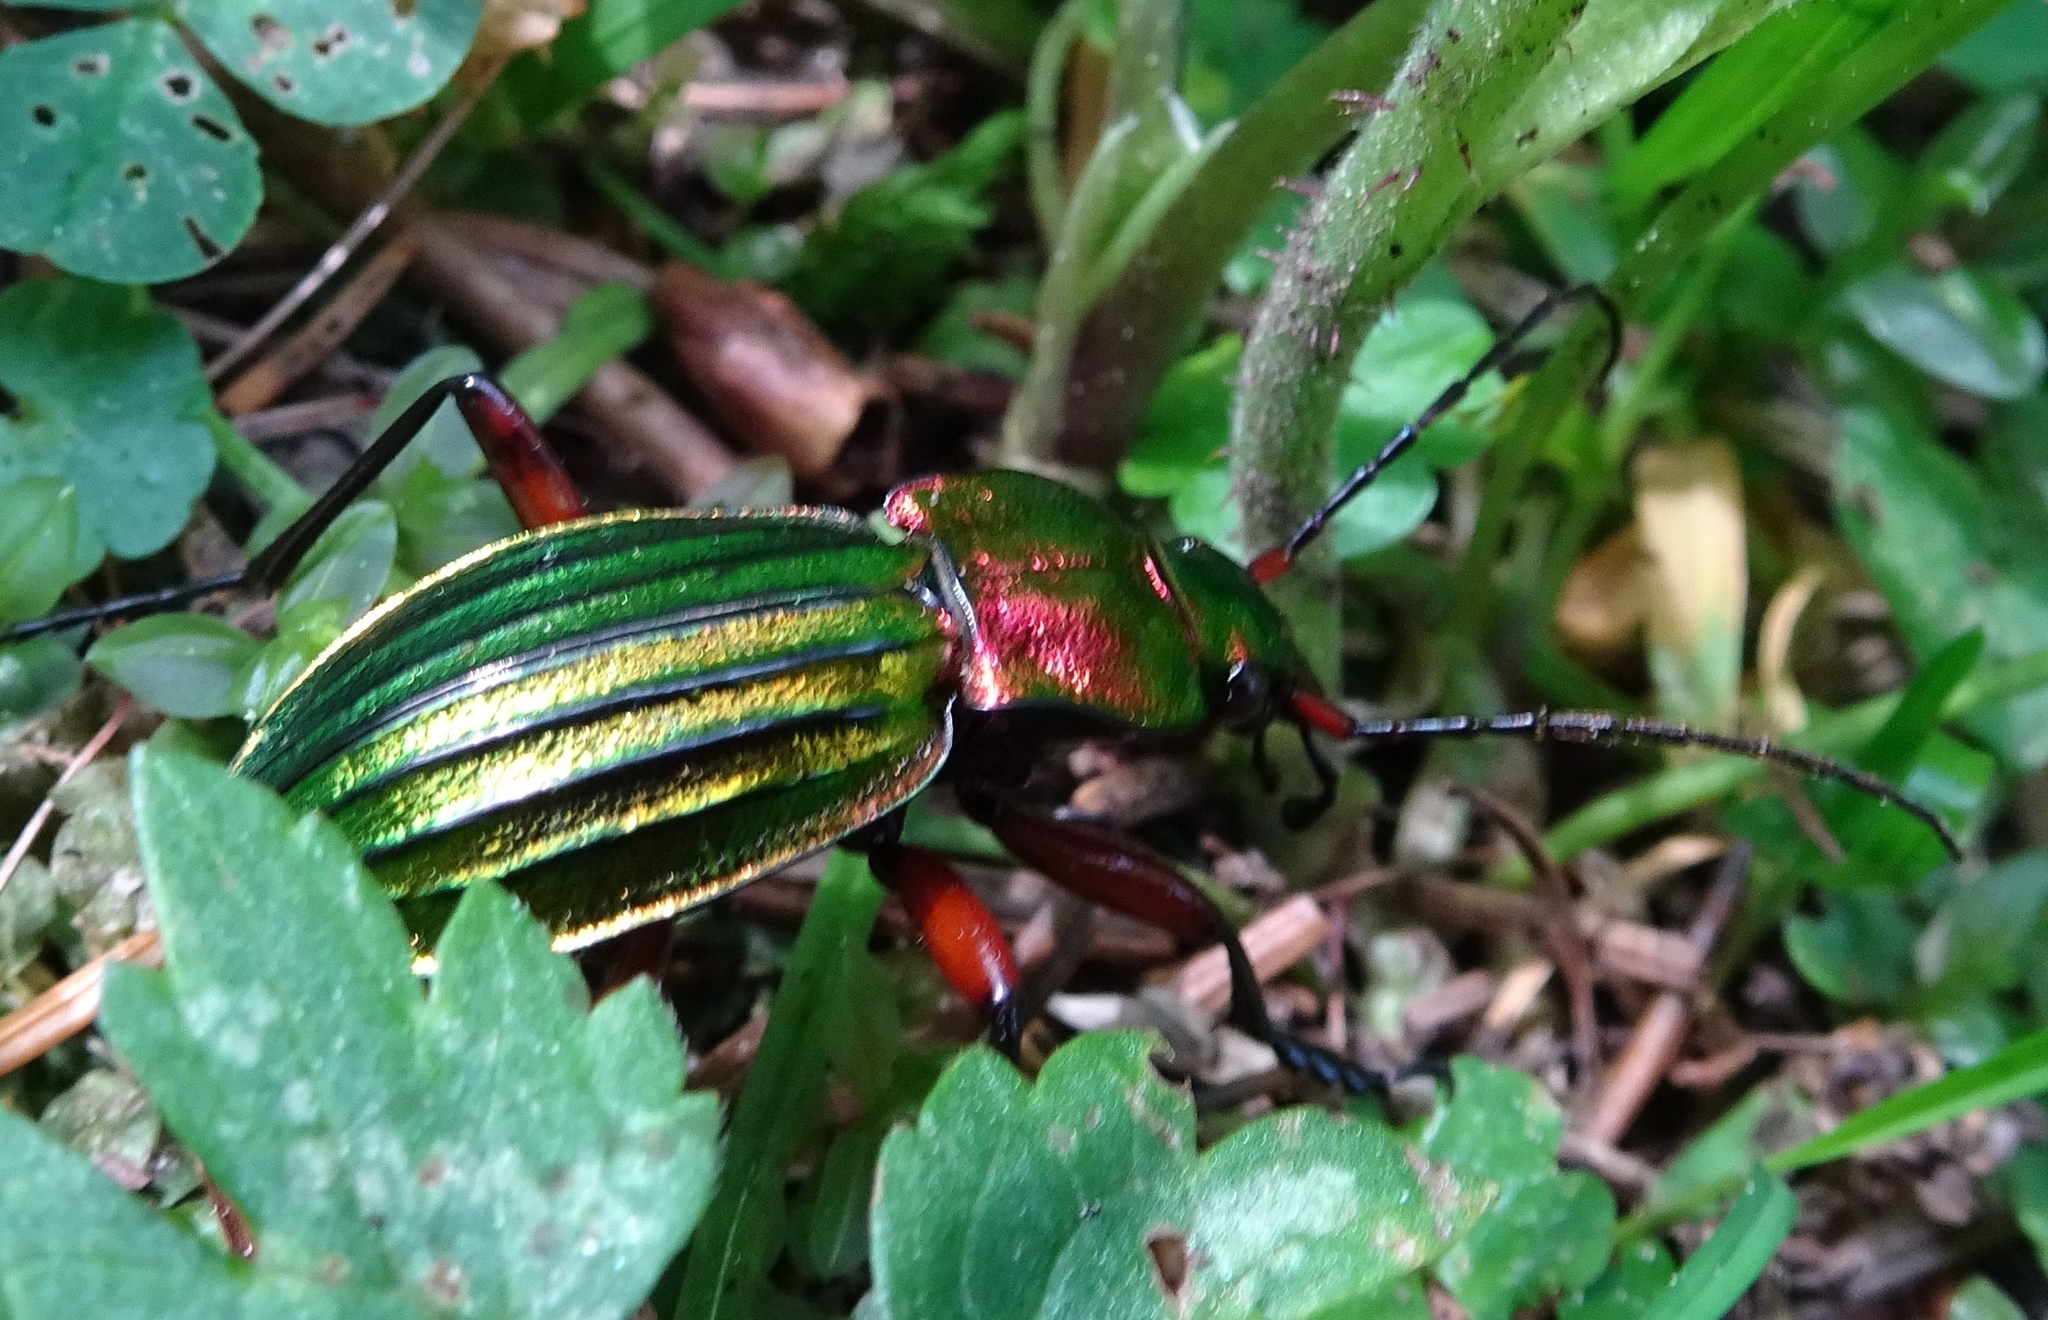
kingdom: Animalia
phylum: Arthropoda
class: Insecta
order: Coleoptera
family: Carabidae
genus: Carabus
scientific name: Carabus auronitens
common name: Carabus auronitens
